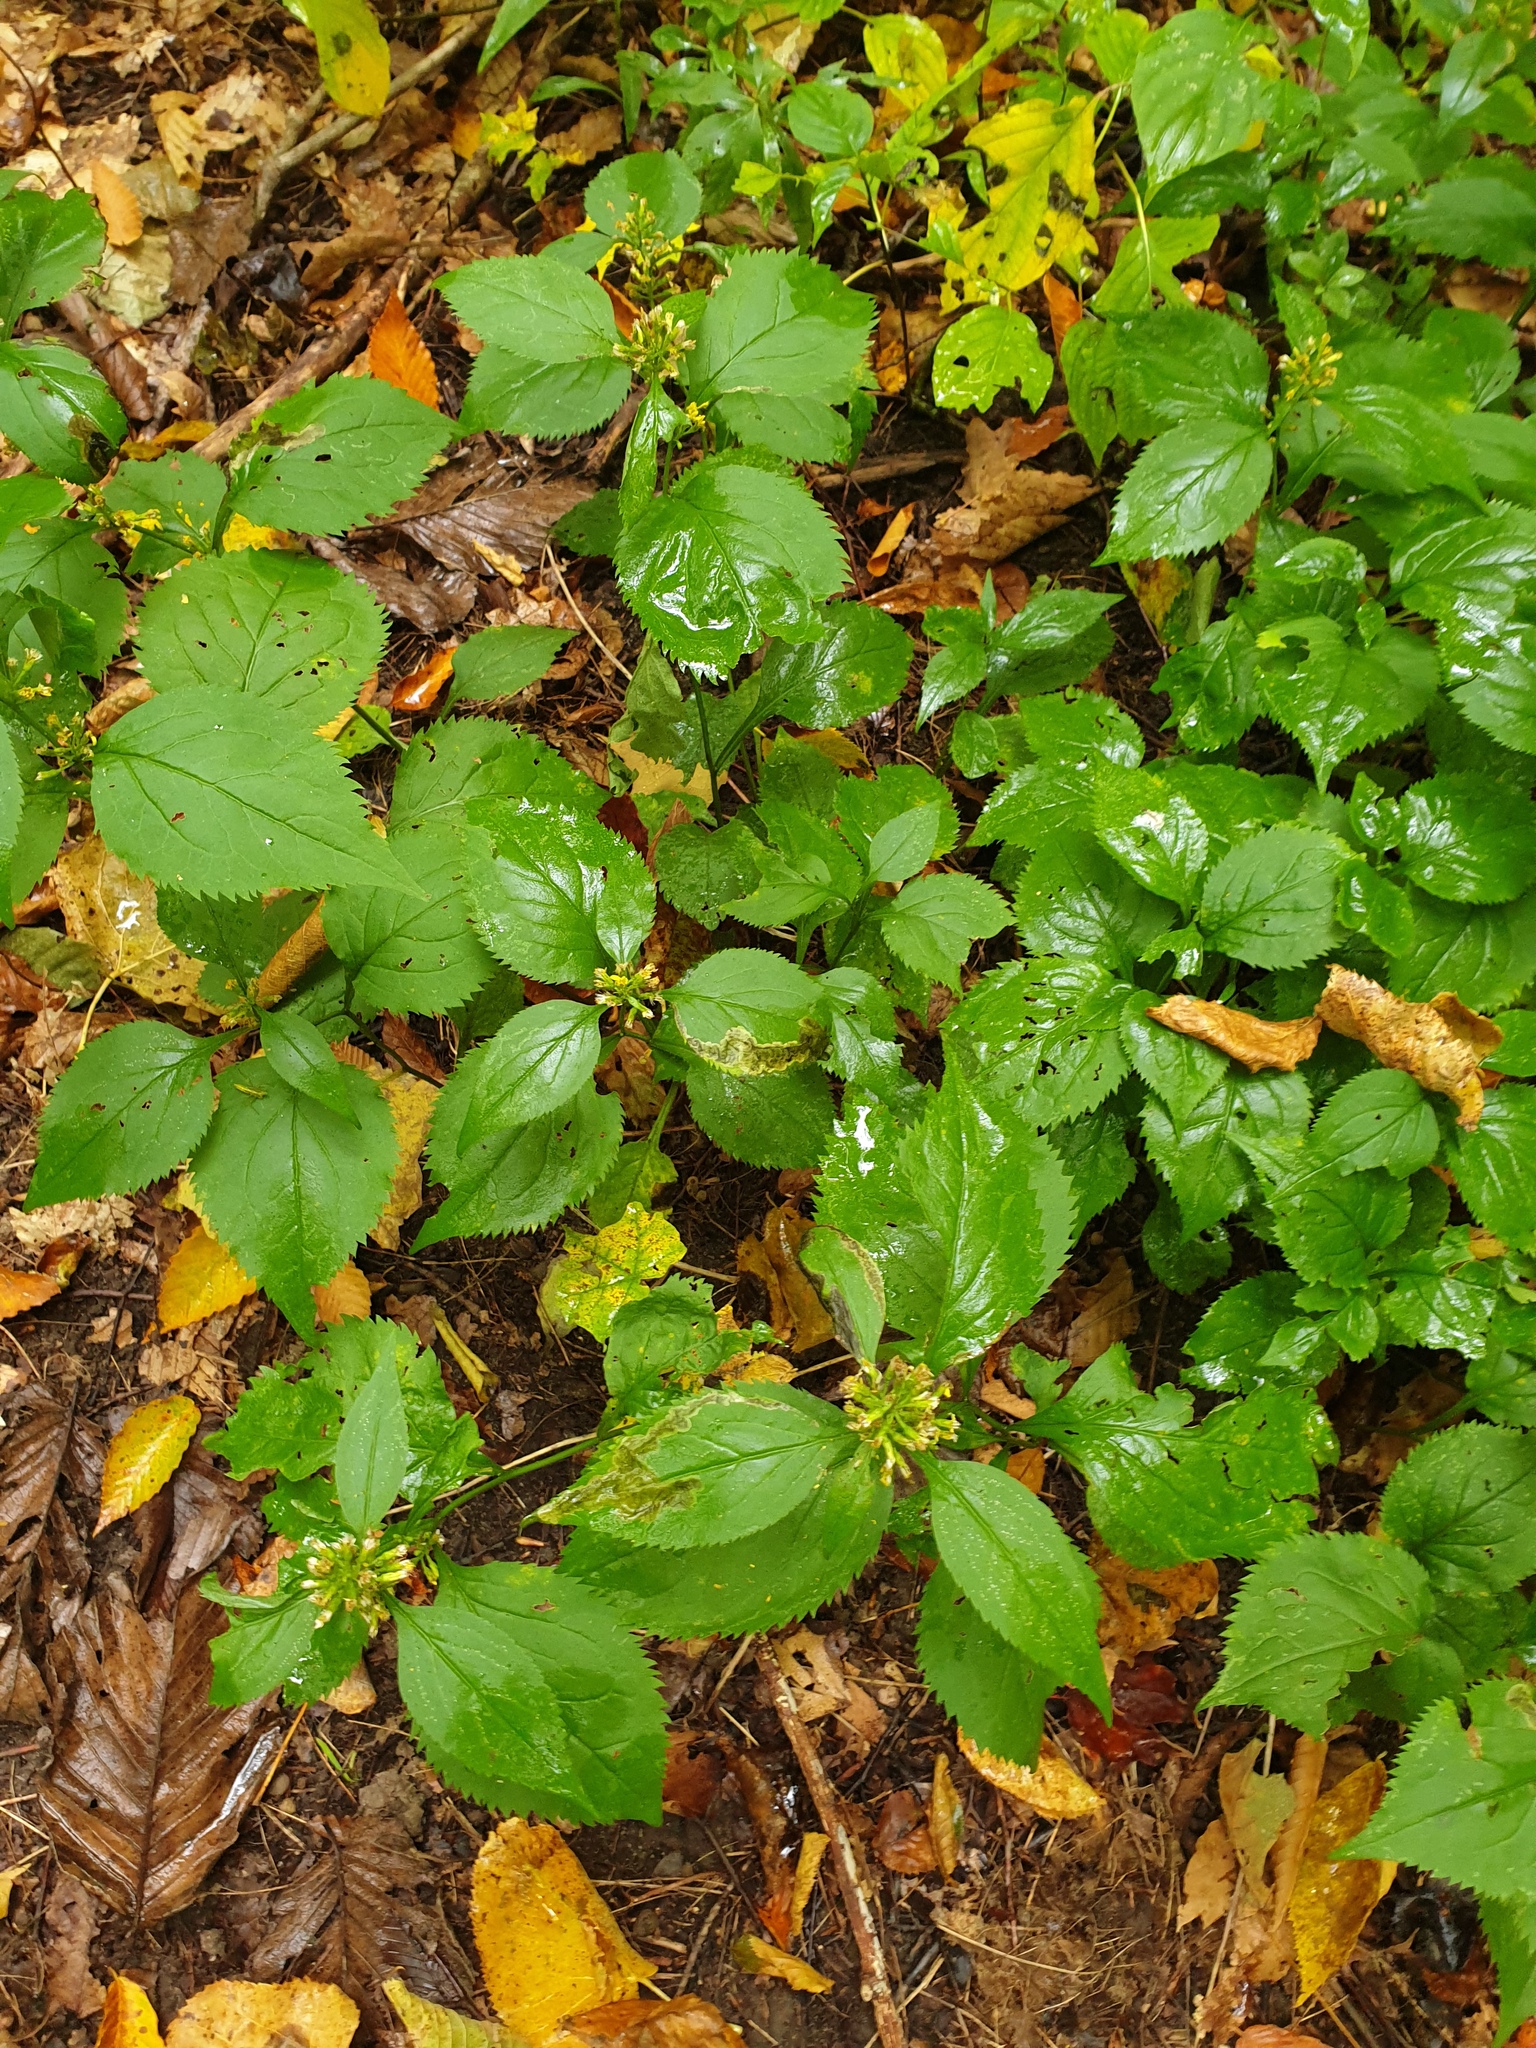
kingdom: Plantae
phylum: Tracheophyta
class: Magnoliopsida
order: Asterales
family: Asteraceae
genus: Solidago
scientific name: Solidago flexicaulis
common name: Zig-zag goldenrod
